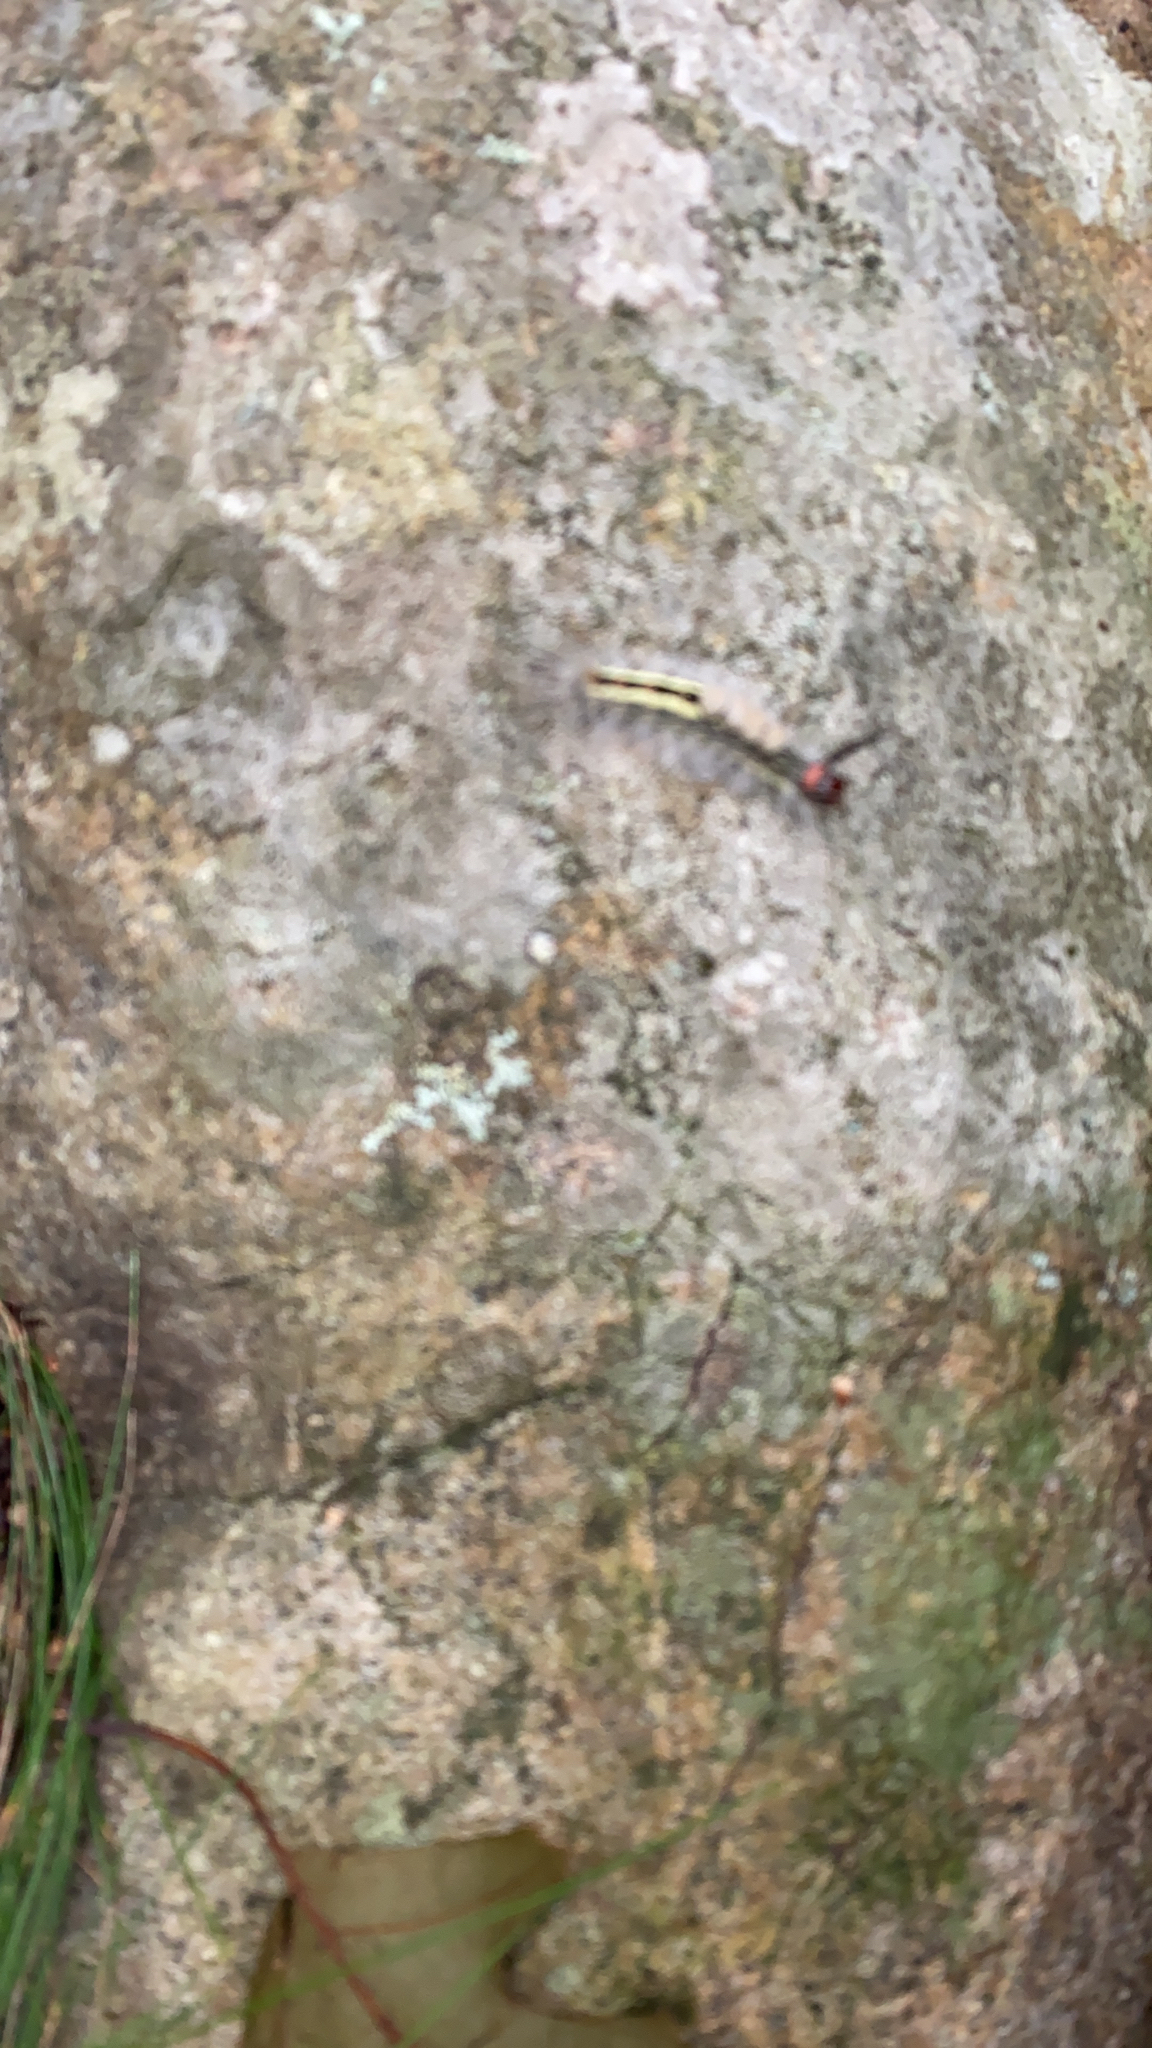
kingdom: Animalia
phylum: Arthropoda
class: Insecta
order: Lepidoptera
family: Erebidae
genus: Orgyia
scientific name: Orgyia leucostigma
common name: White-marked tussock moth
